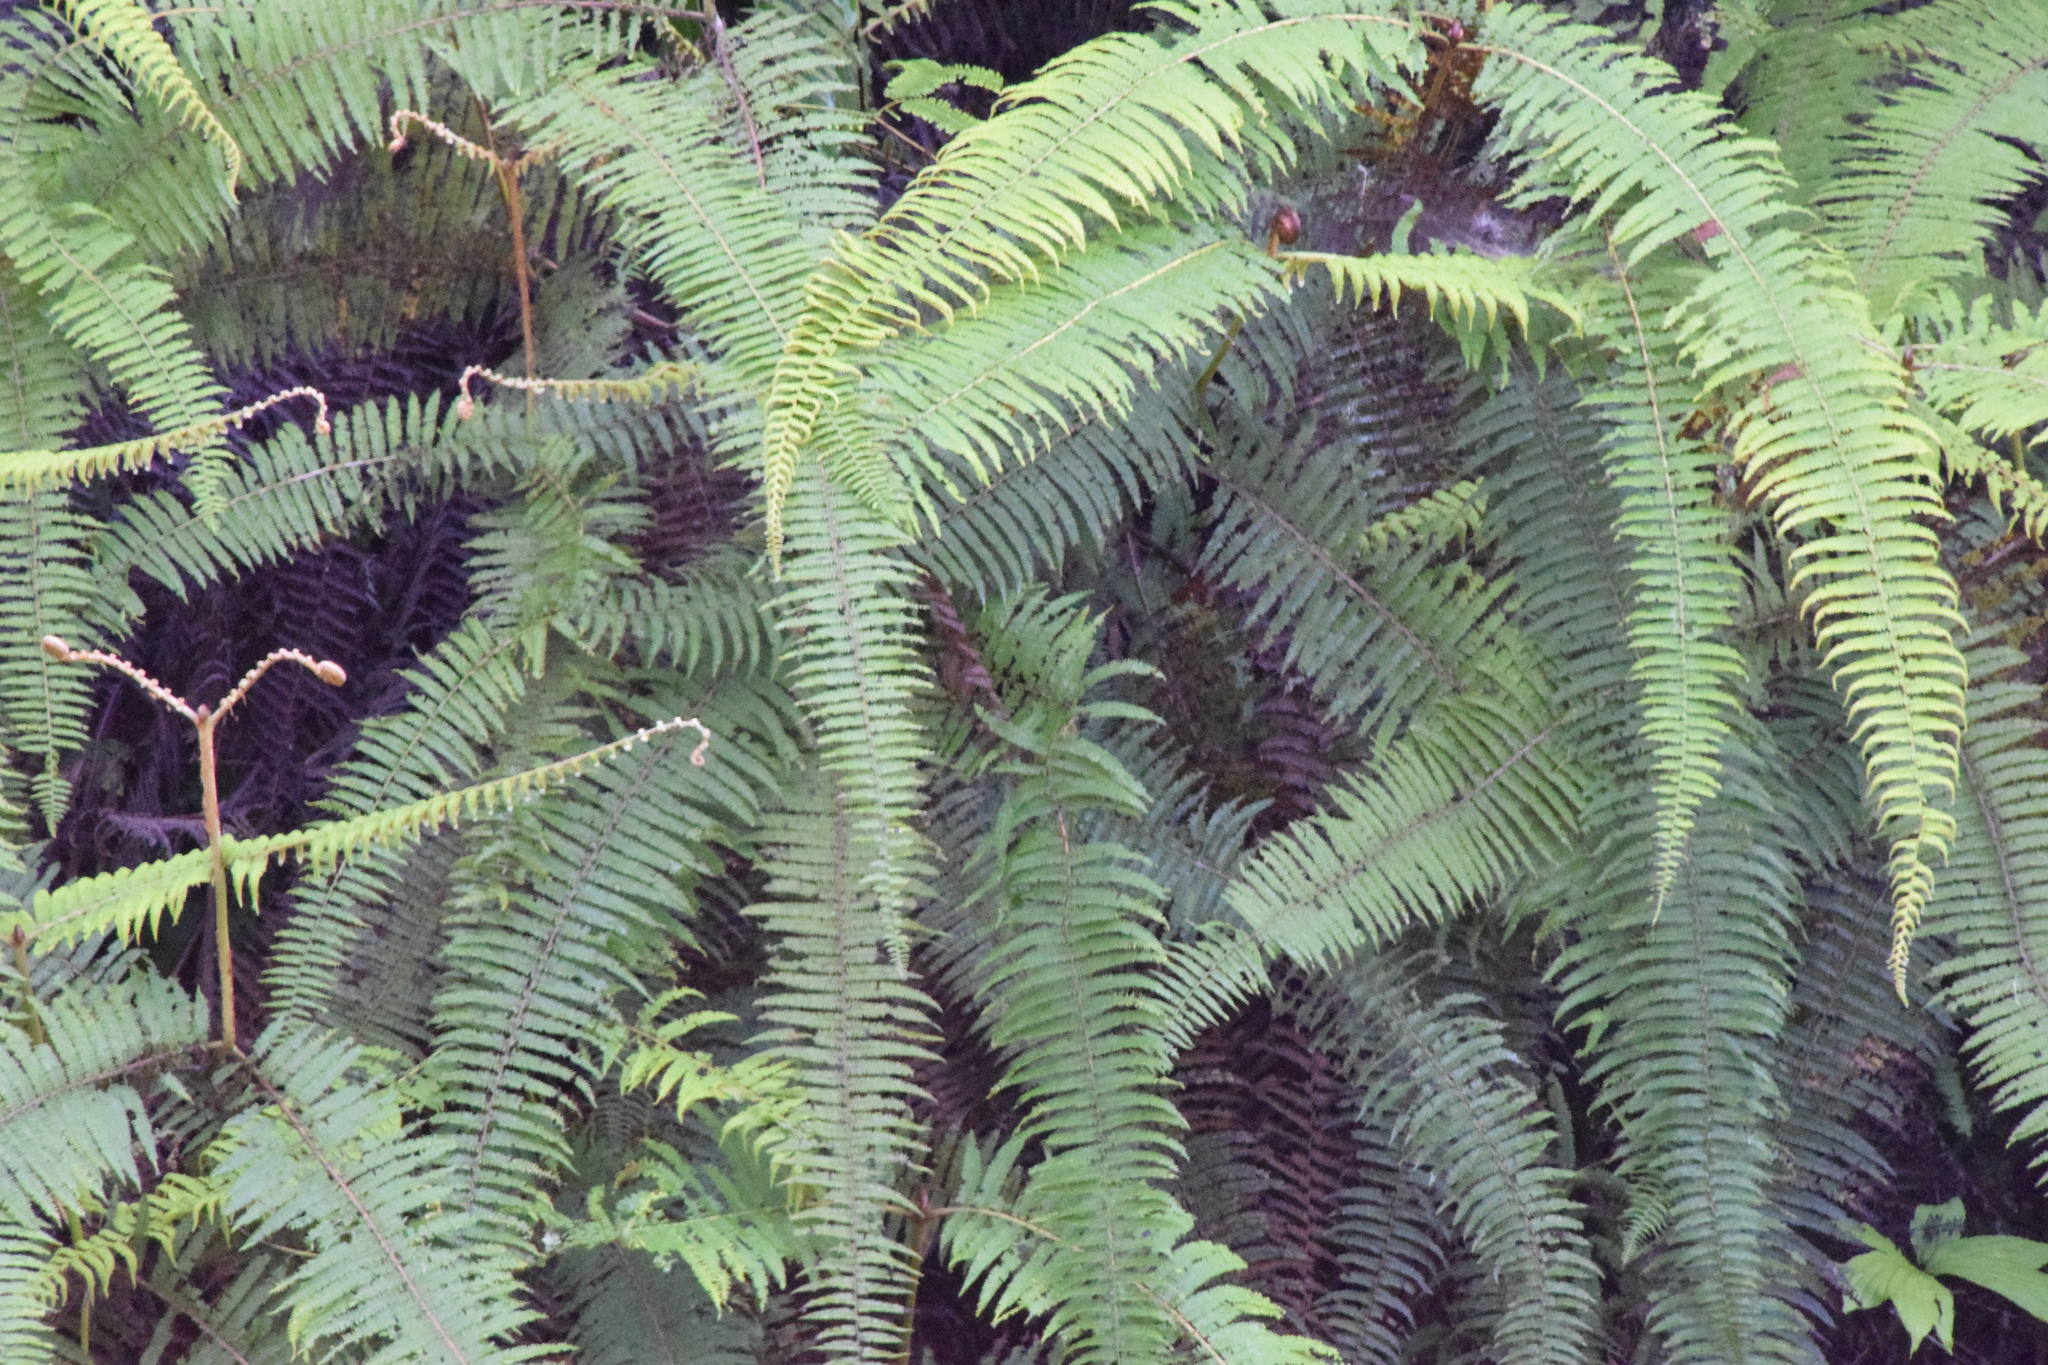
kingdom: Plantae
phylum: Tracheophyta
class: Polypodiopsida
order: Gleicheniales
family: Gleicheniaceae
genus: Dicranopteris
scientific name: Dicranopteris linearis
